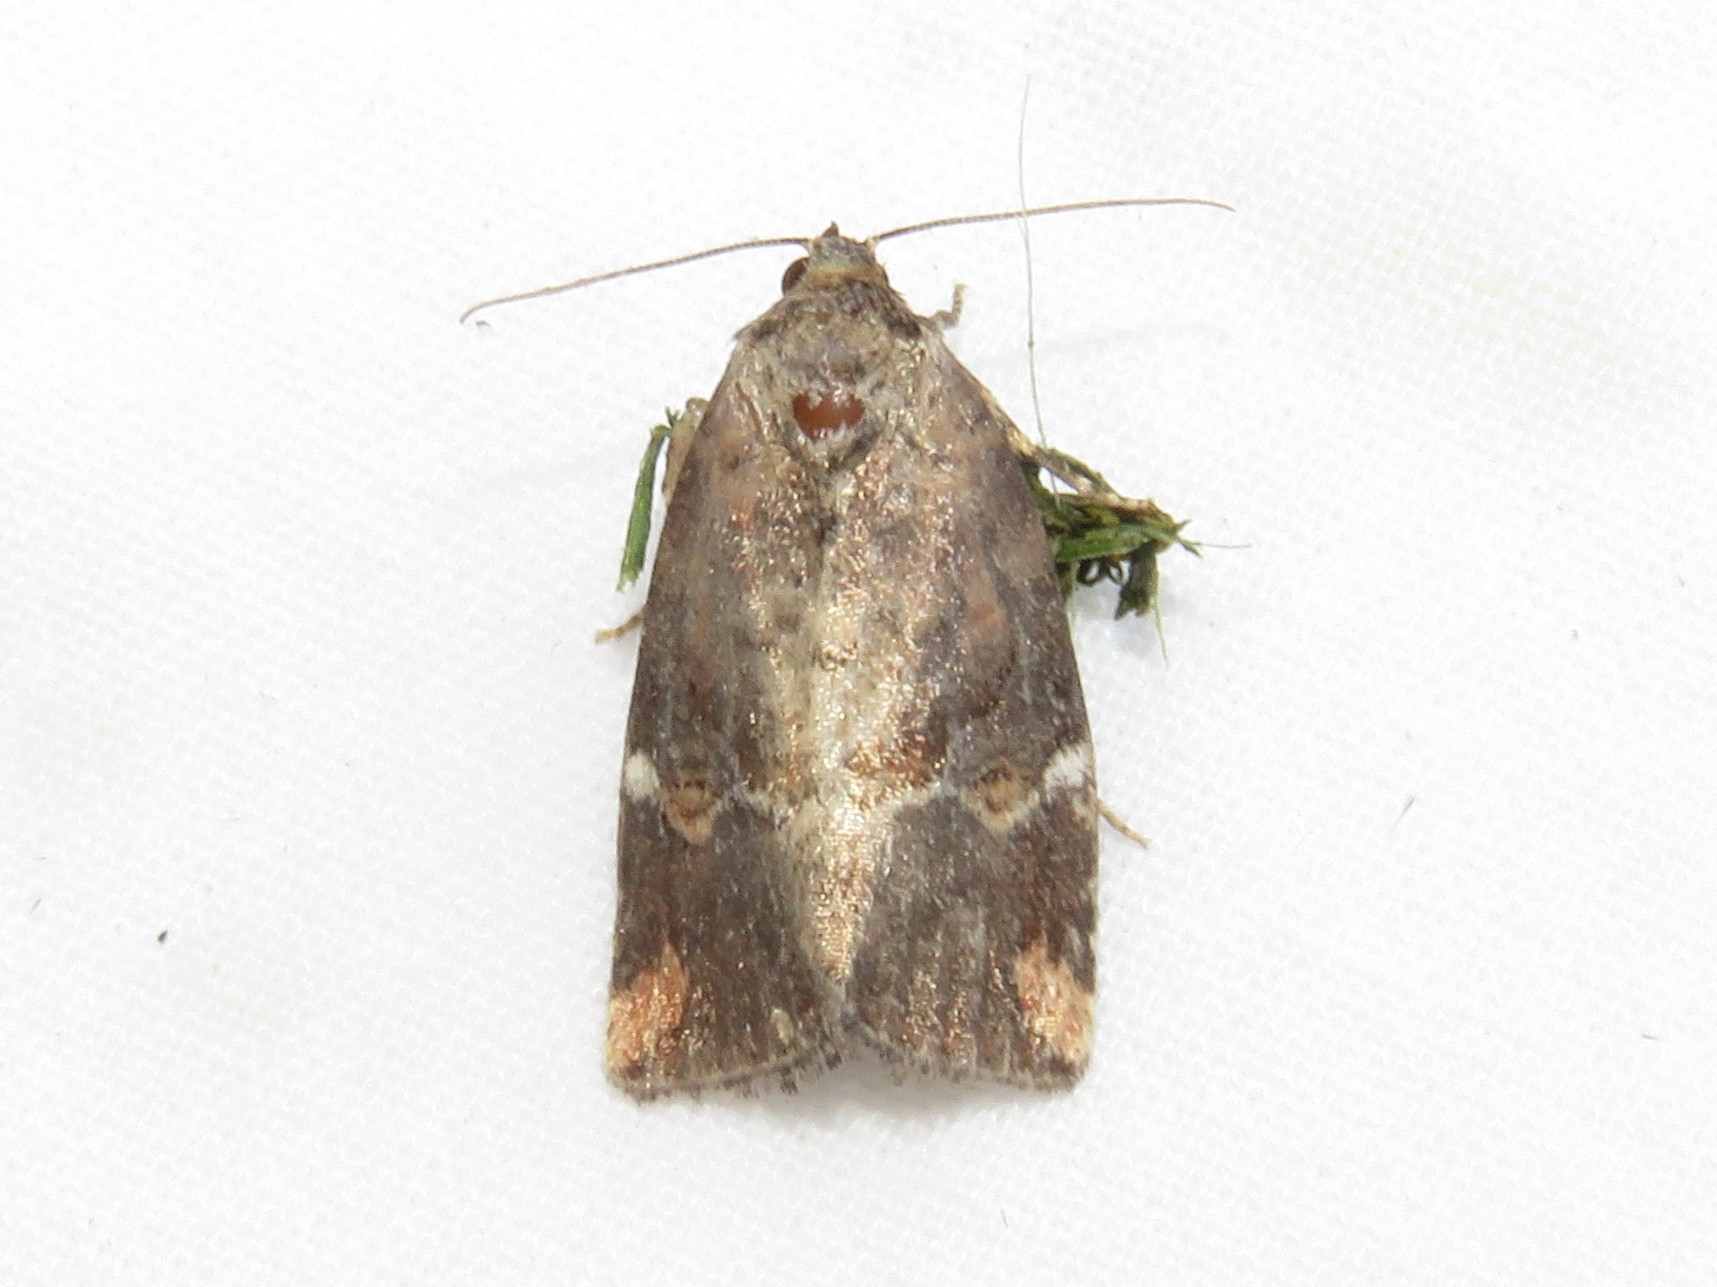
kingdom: Animalia
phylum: Arthropoda
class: Insecta
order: Lepidoptera
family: Noctuidae
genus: Elaphria
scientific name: Elaphria versicolor
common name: Fir harlequin
